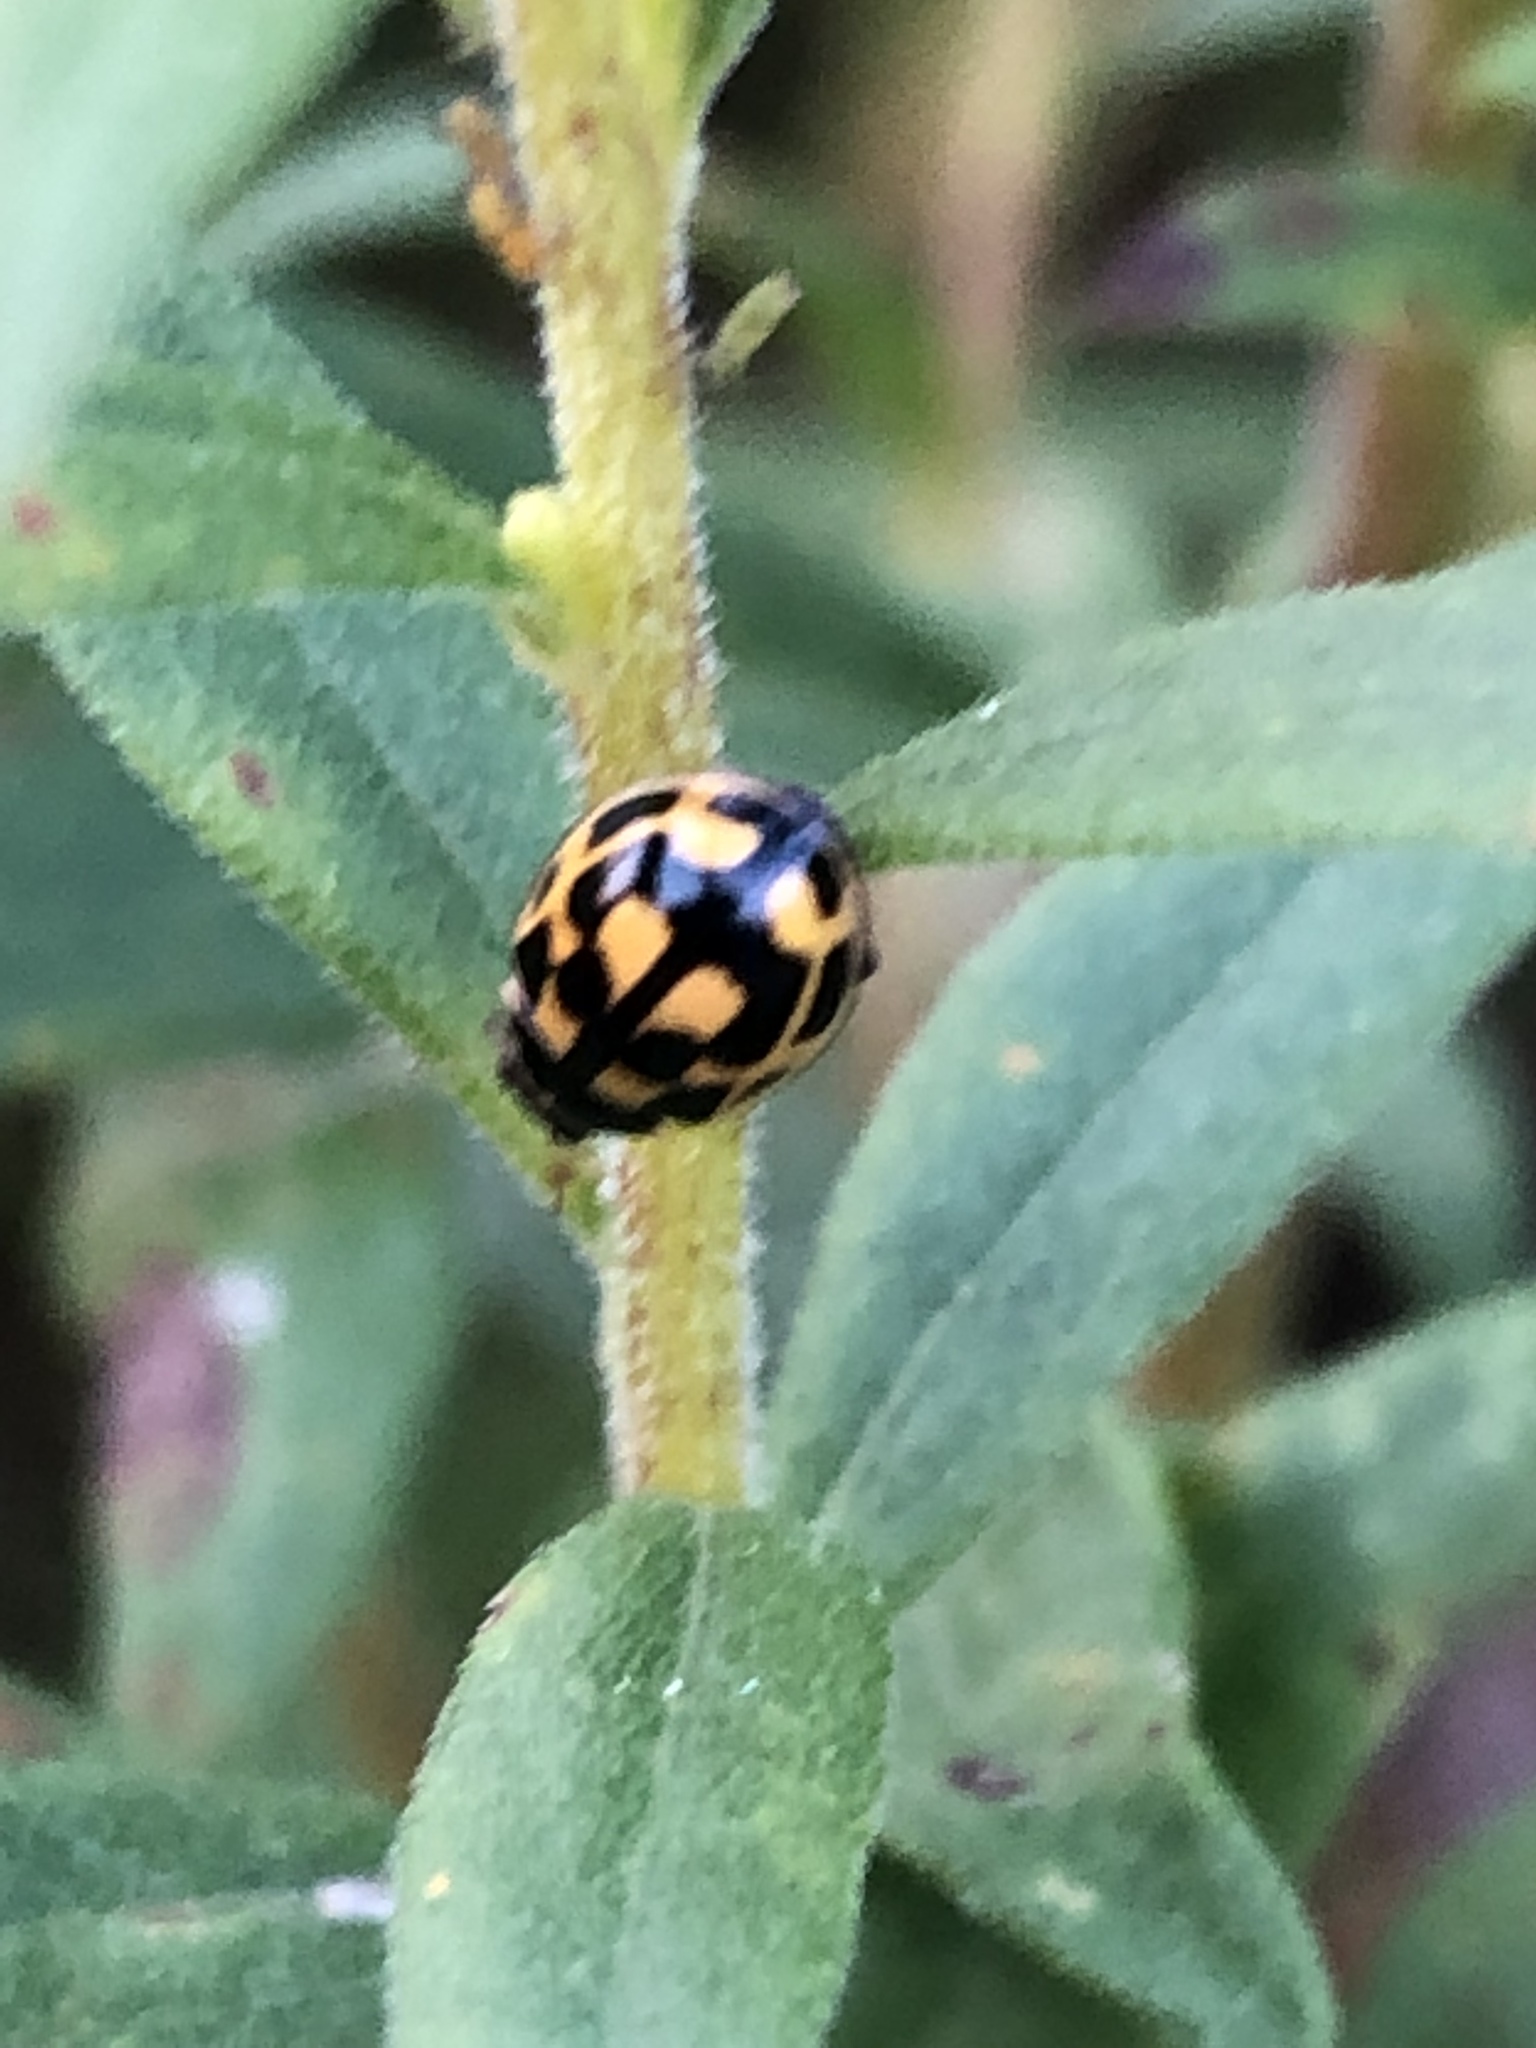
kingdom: Animalia
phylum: Arthropoda
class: Insecta
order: Coleoptera
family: Coccinellidae
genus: Propylaea
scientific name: Propylaea quatuordecimpunctata
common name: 14-spotted ladybird beetle
